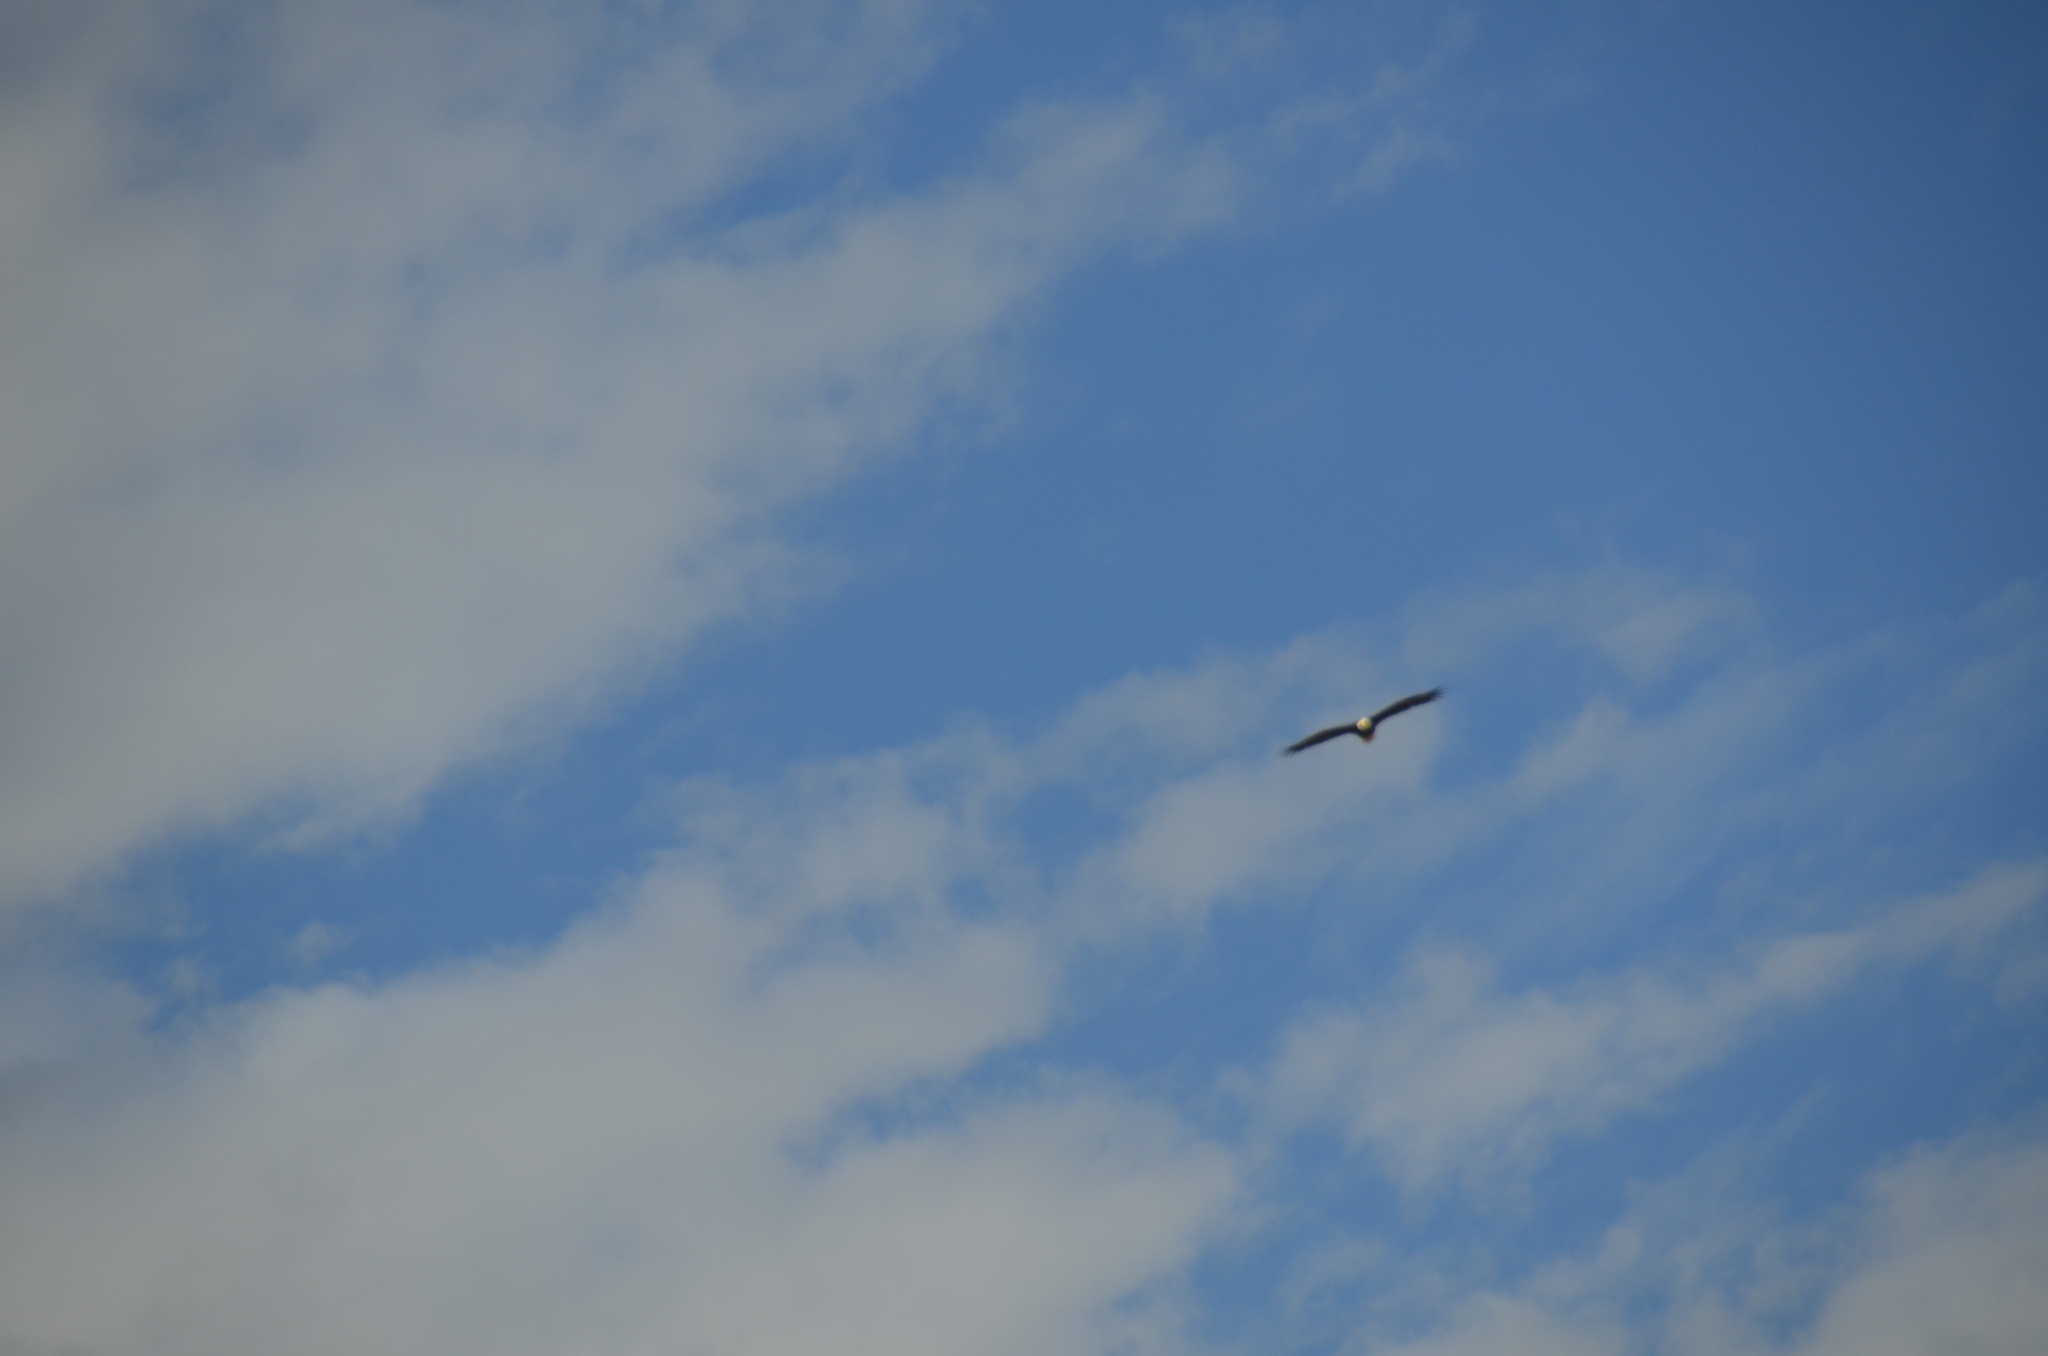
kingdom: Animalia
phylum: Chordata
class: Aves
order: Accipitriformes
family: Accipitridae
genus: Haliaeetus
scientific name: Haliaeetus leucocephalus
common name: Bald eagle
